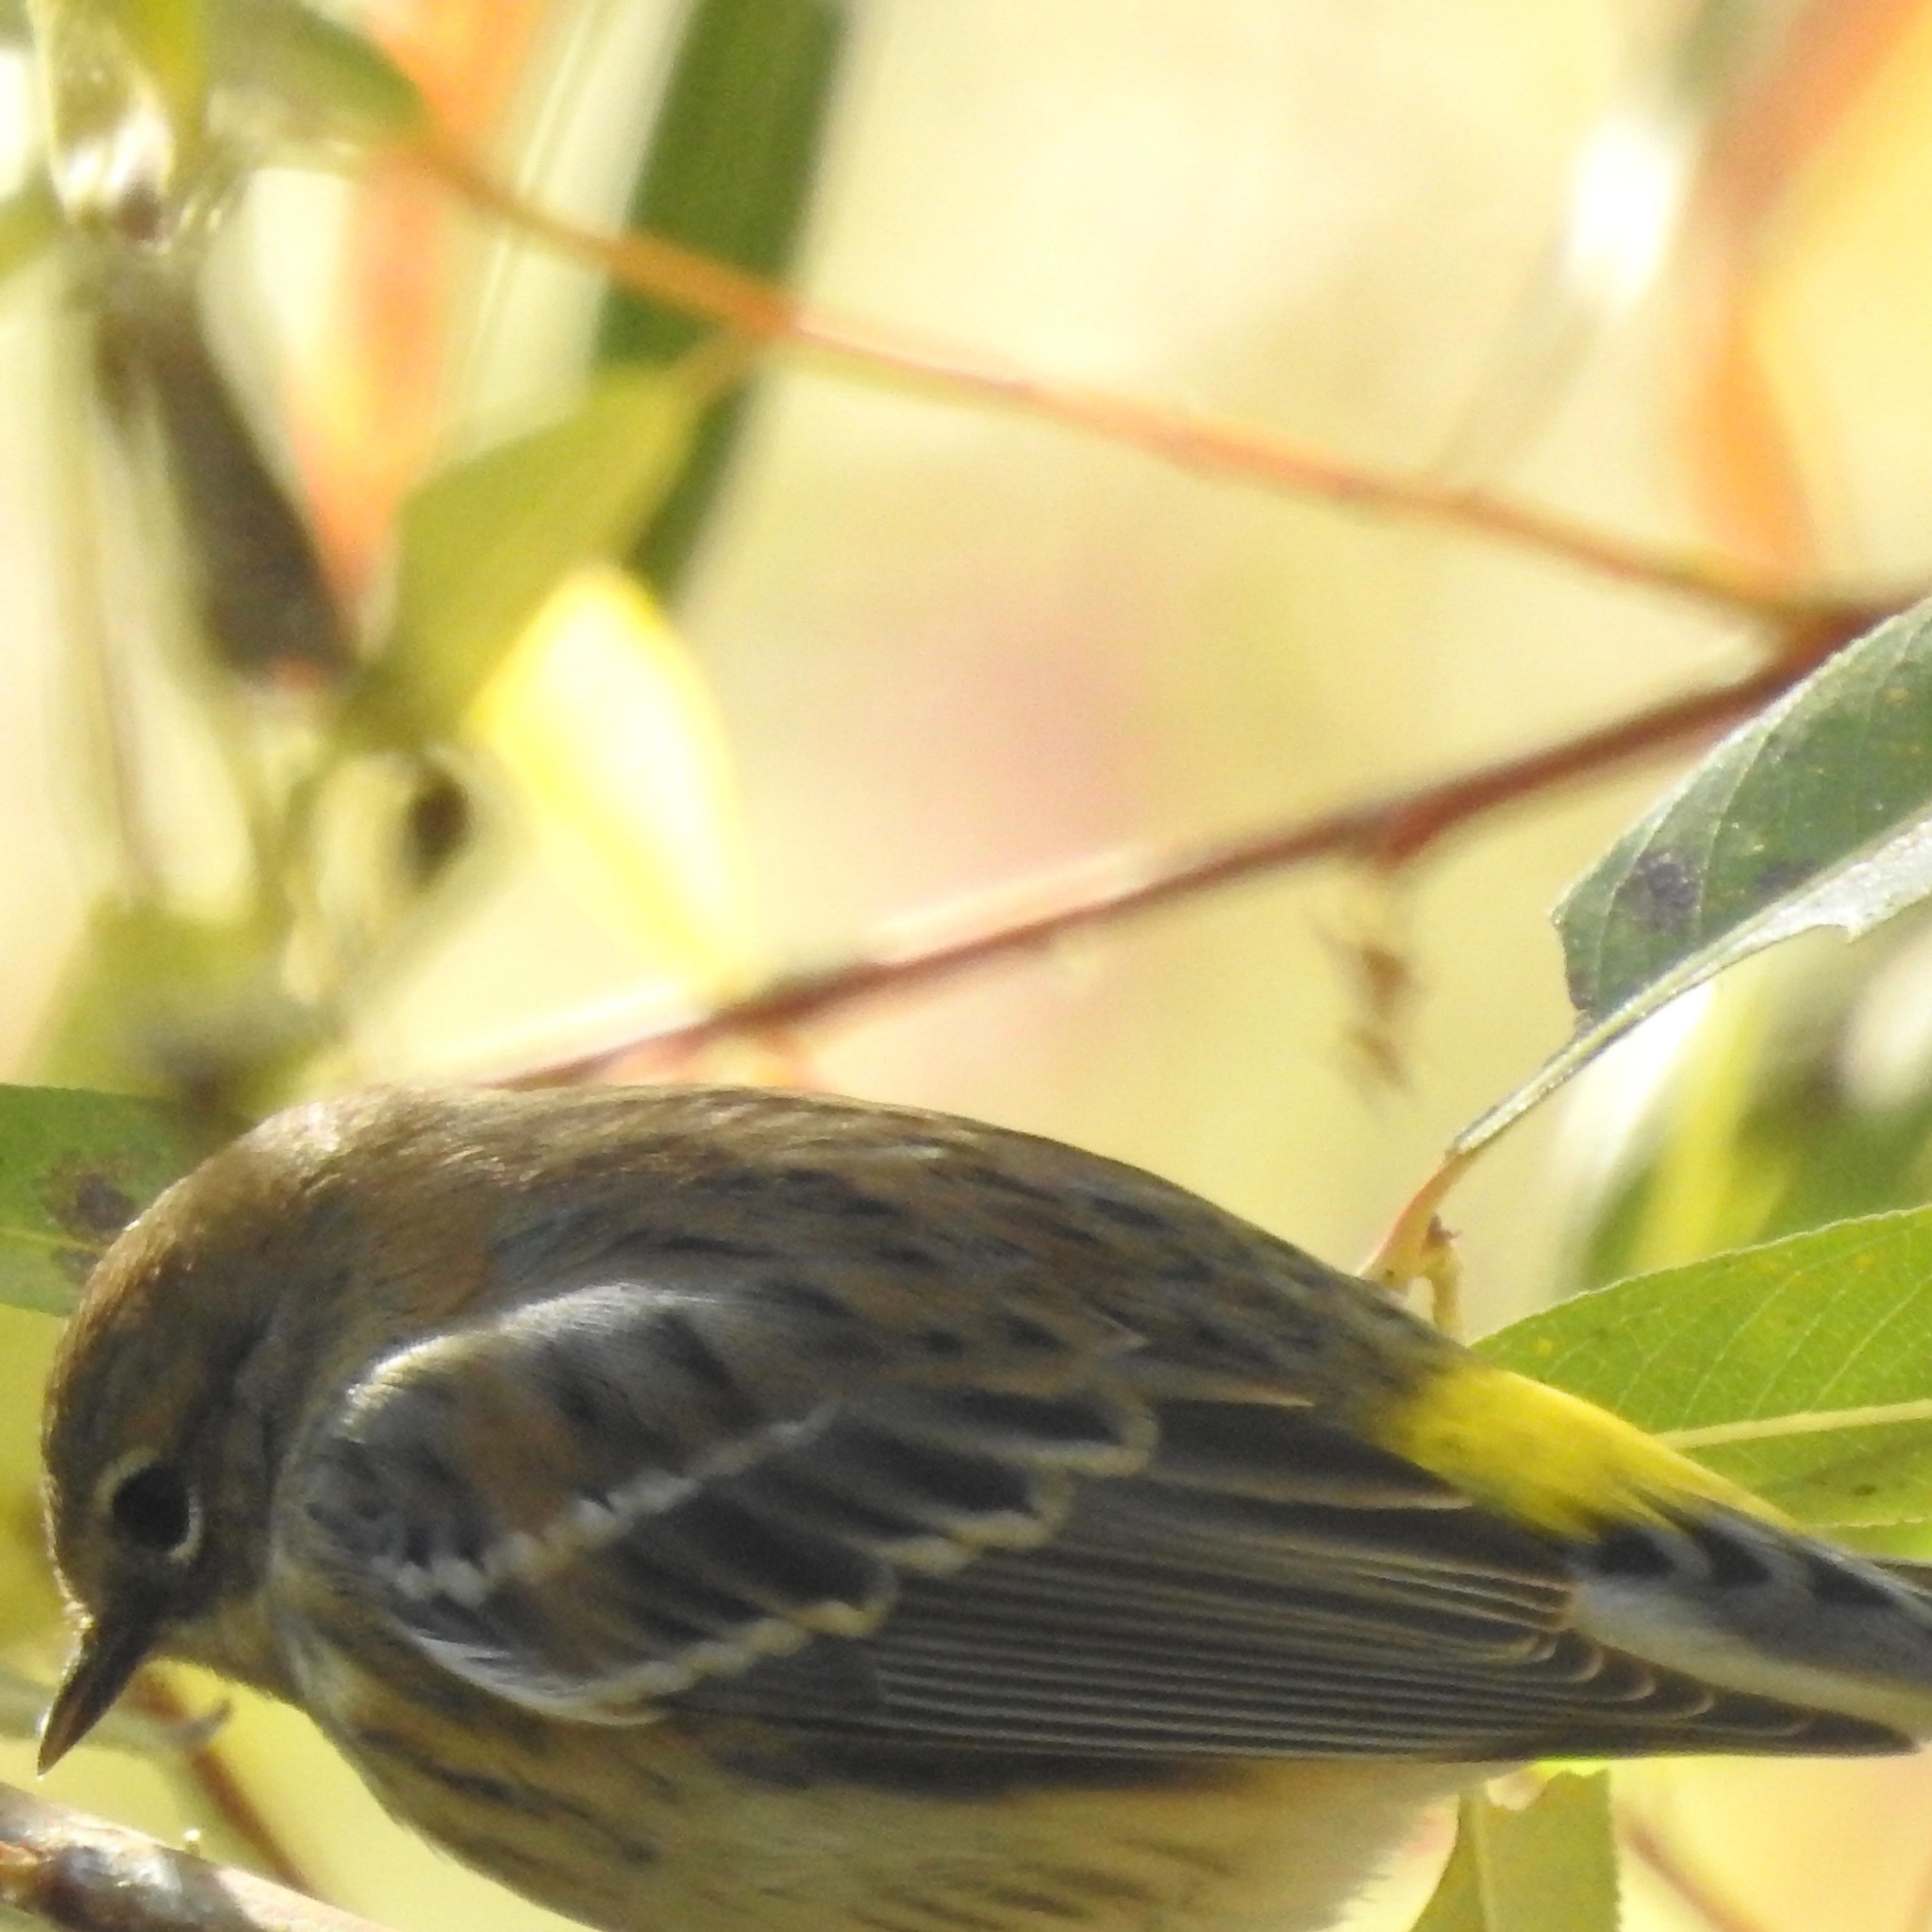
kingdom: Animalia
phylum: Chordata
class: Aves
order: Passeriformes
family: Parulidae
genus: Setophaga
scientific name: Setophaga coronata
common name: Myrtle warbler
